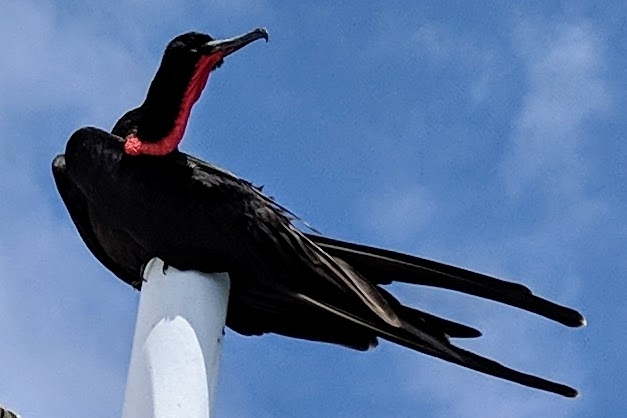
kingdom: Animalia
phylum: Chordata
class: Aves
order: Suliformes
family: Fregatidae
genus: Fregata
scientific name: Fregata minor
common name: Great frigatebird
